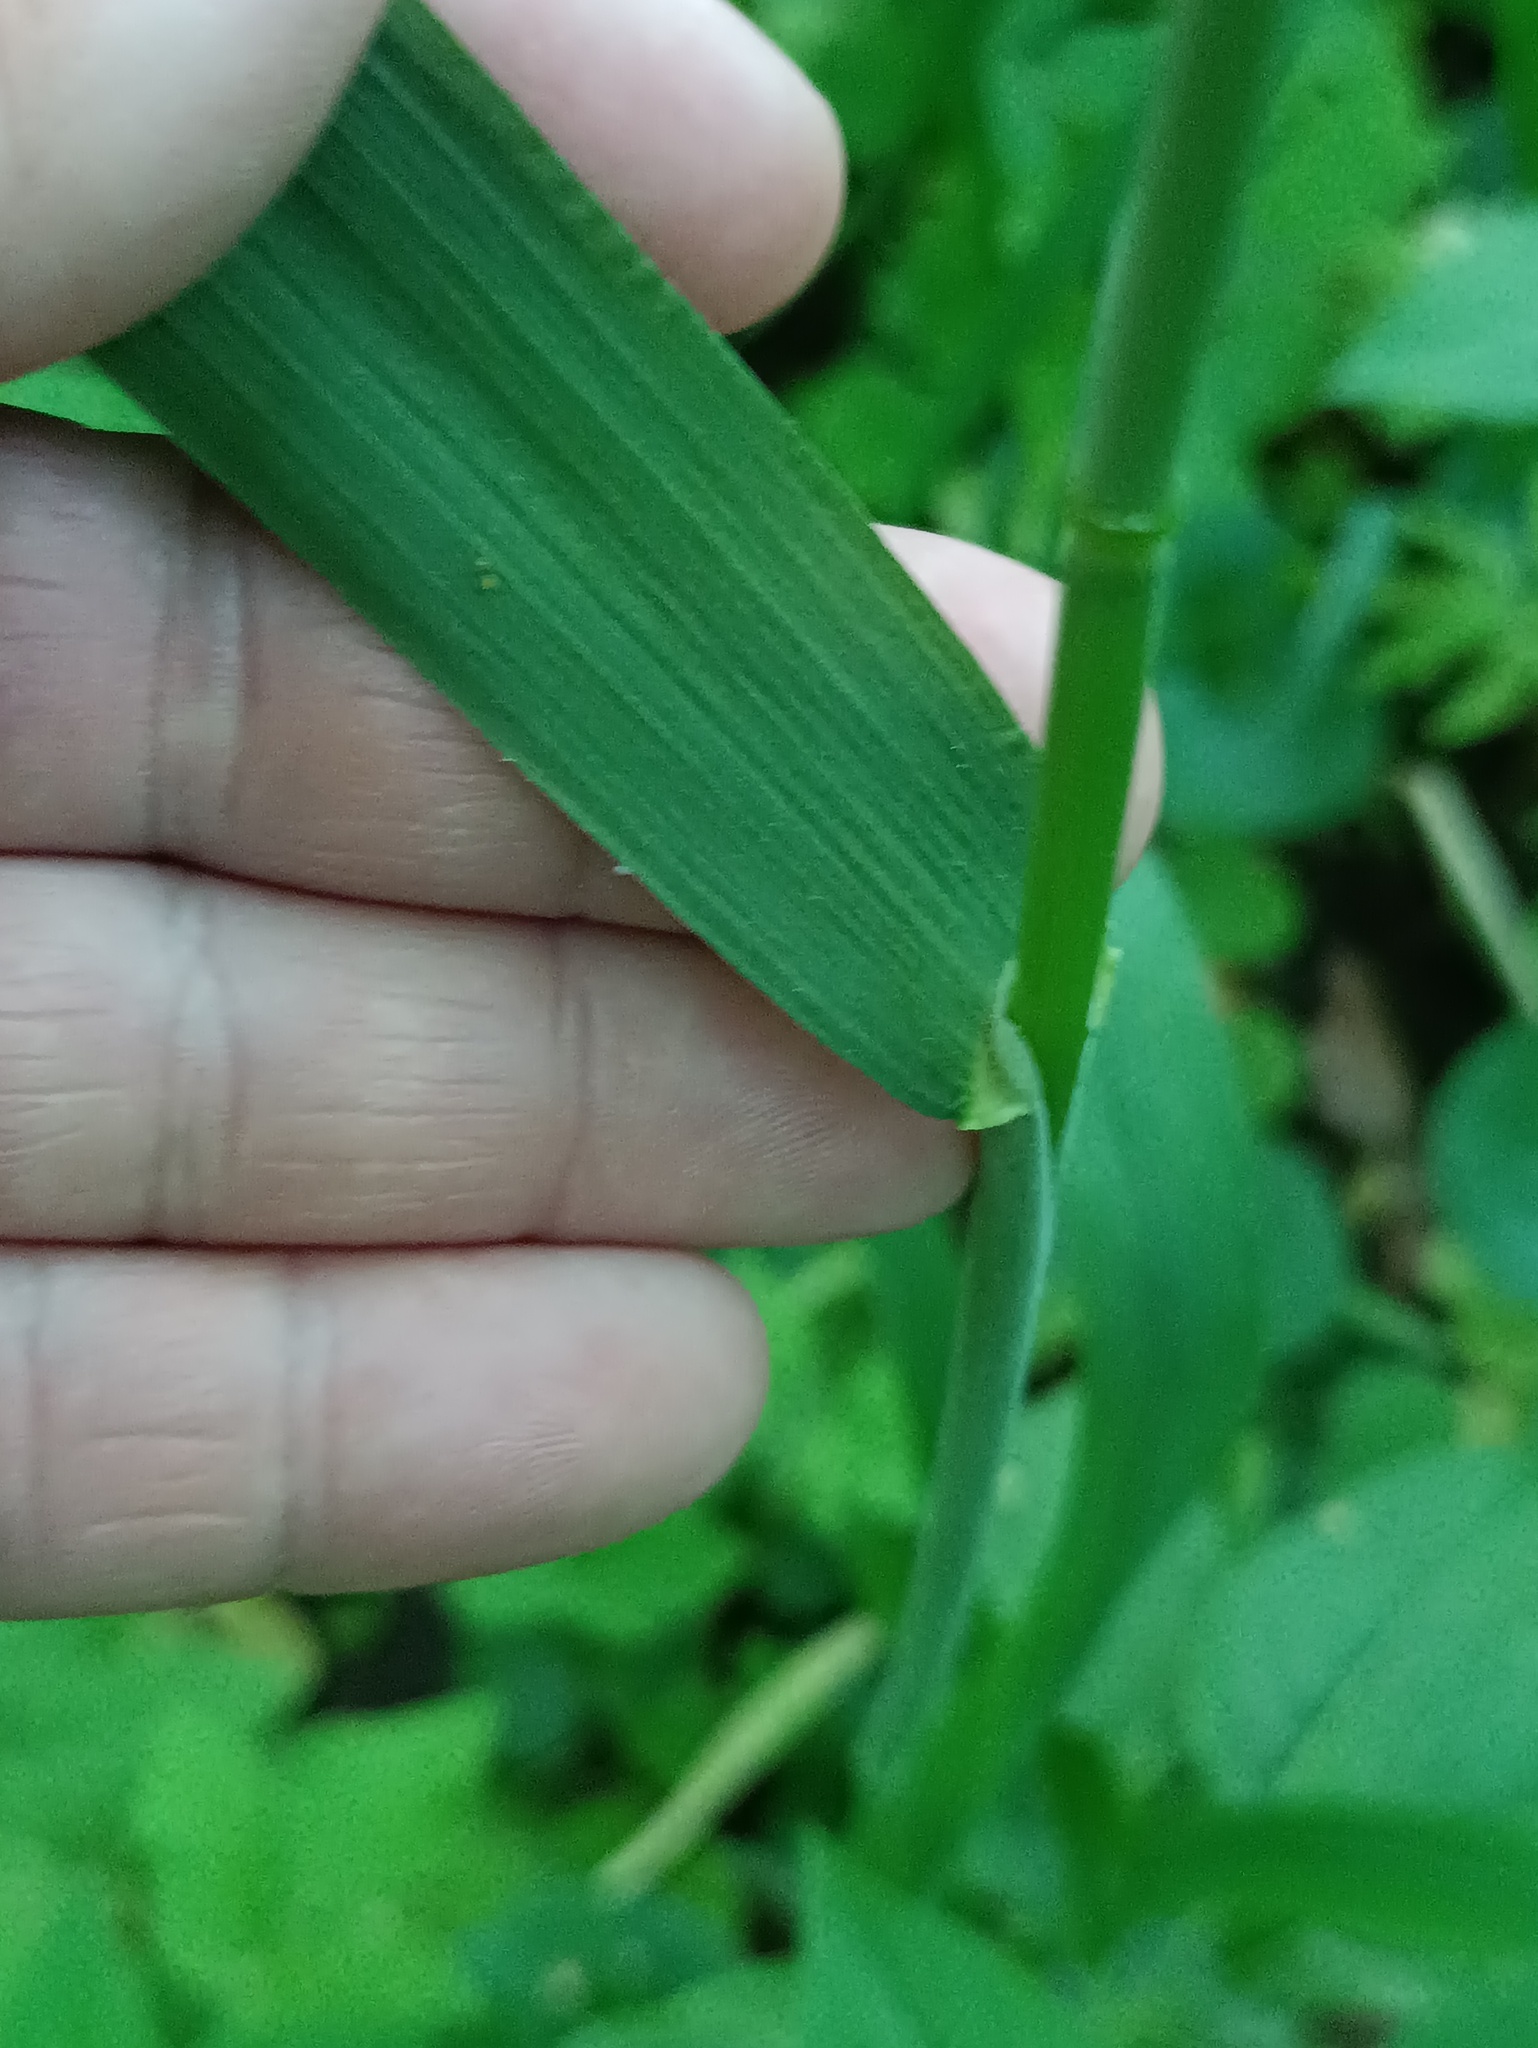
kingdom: Plantae
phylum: Tracheophyta
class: Liliopsida
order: Poales
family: Poaceae
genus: Milium
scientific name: Milium effusum
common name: Wood millet
